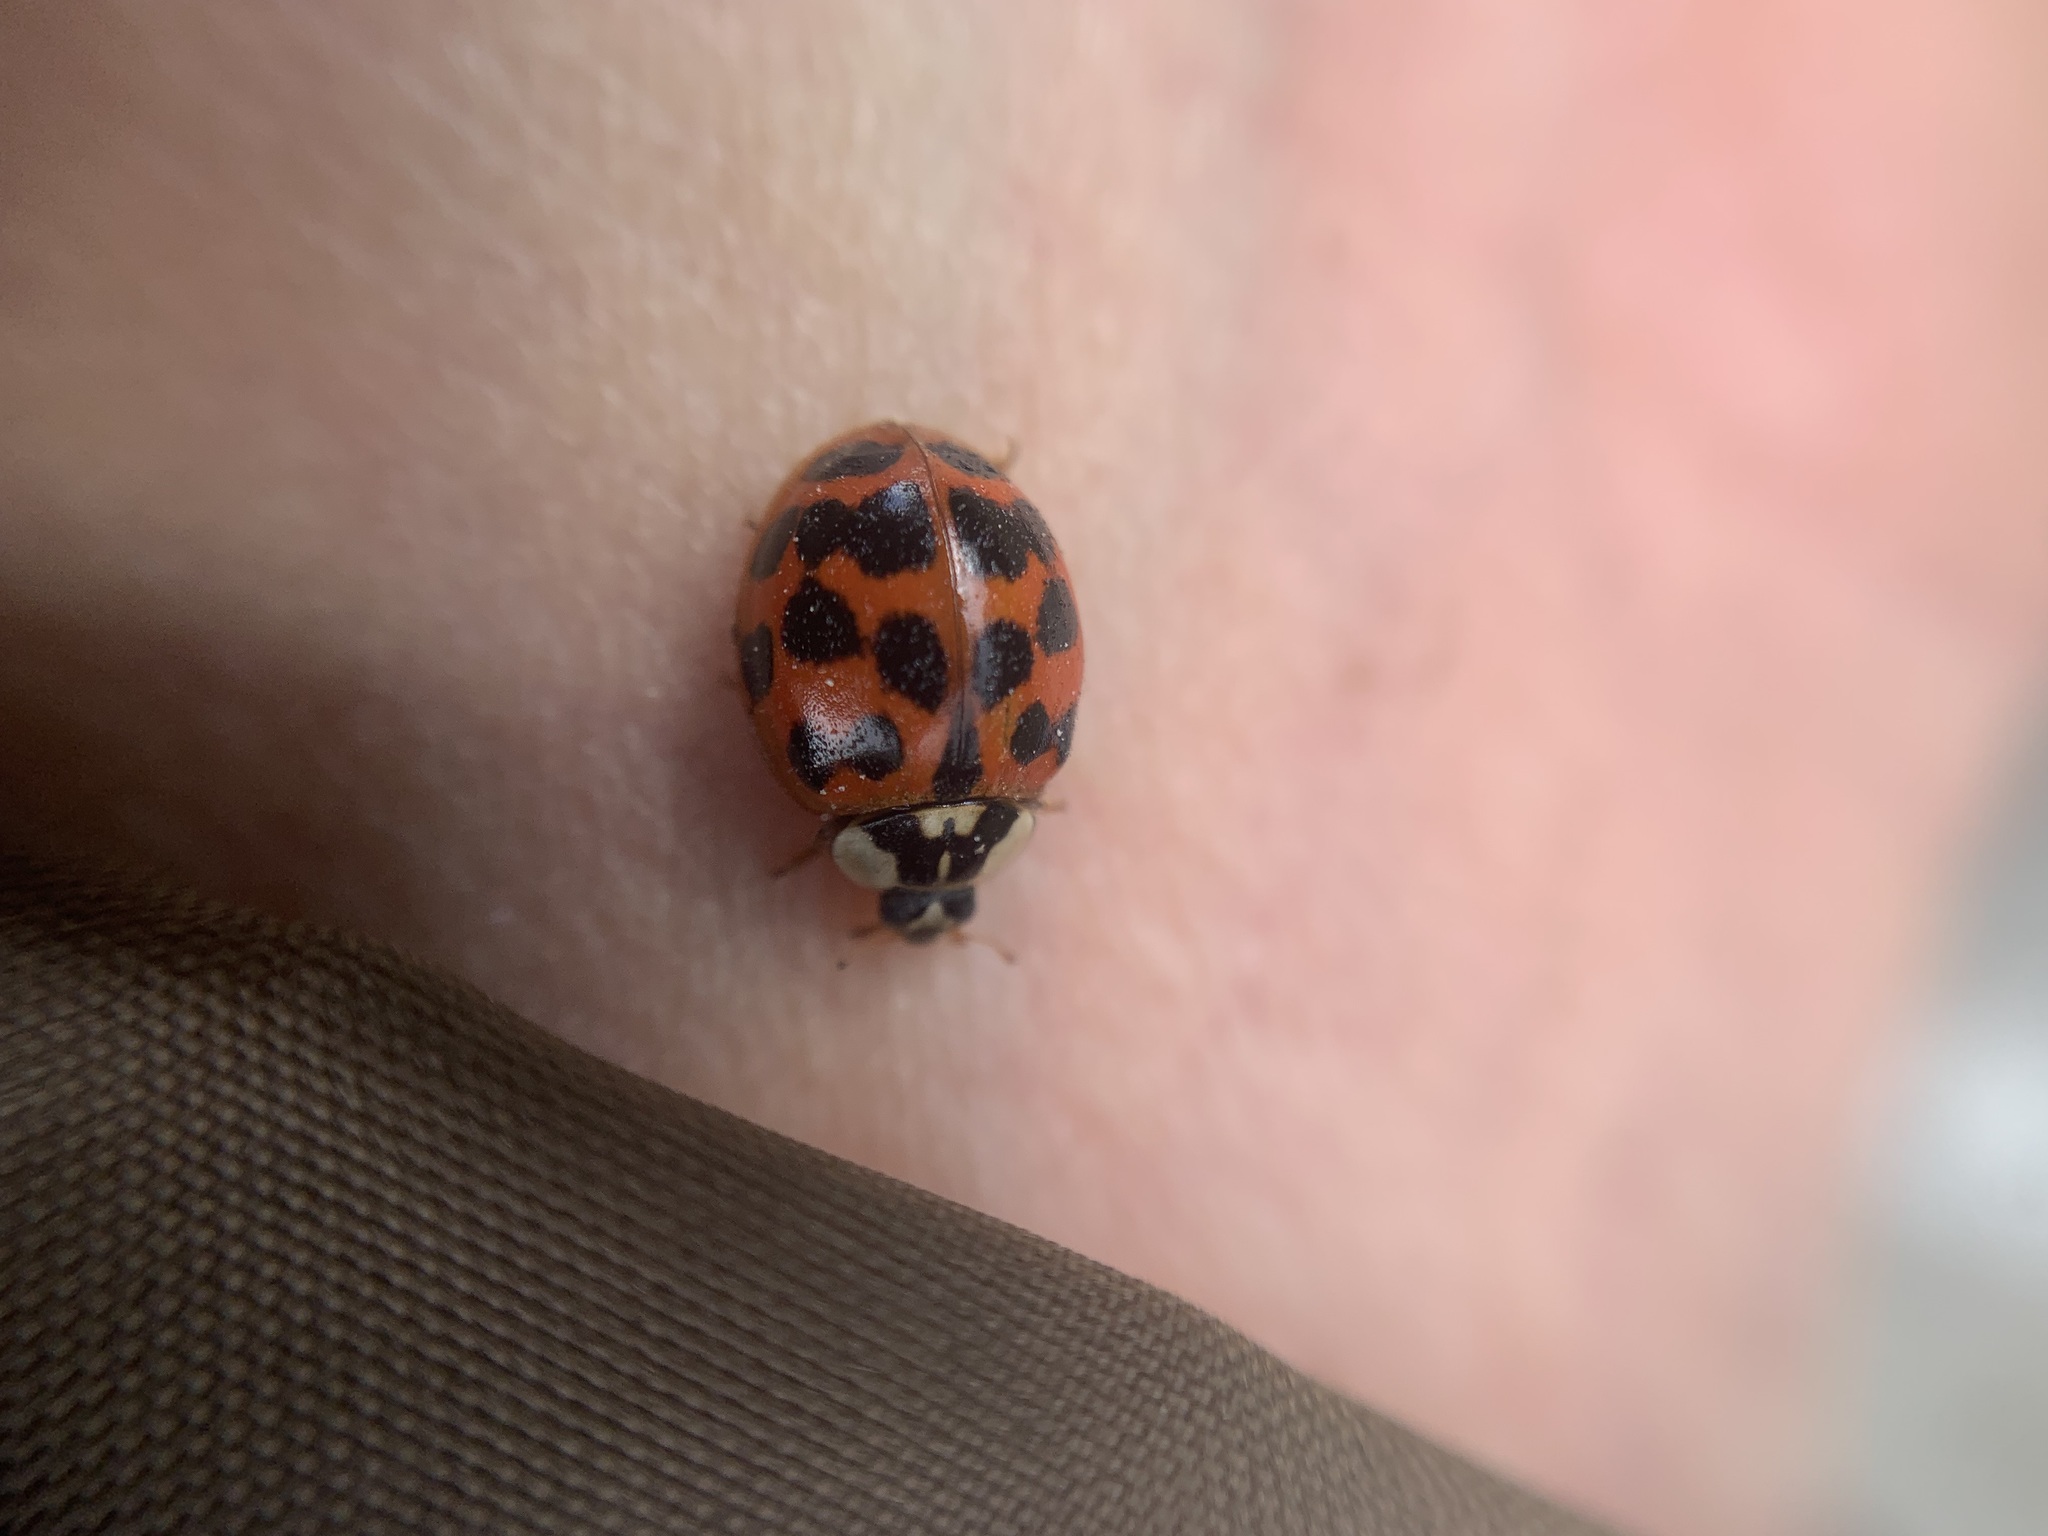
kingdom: Animalia
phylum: Arthropoda
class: Insecta
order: Coleoptera
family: Coccinellidae
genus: Harmonia
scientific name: Harmonia axyridis
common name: Harlequin ladybird
